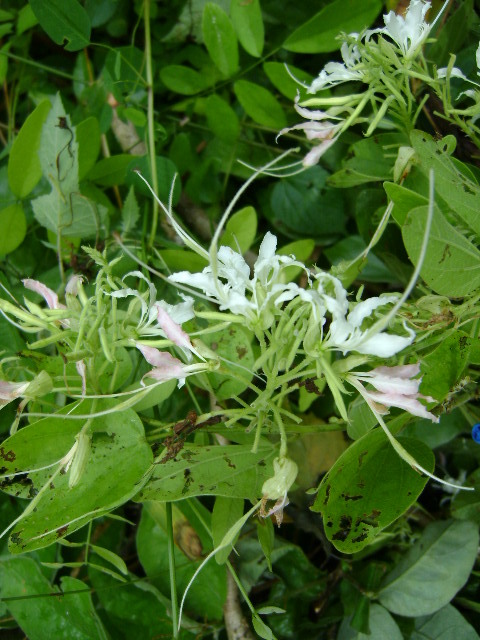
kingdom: Plantae
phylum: Tracheophyta
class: Magnoliopsida
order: Fabales
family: Fabaceae
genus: Bauhinia
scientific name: Bauhinia divaricata
